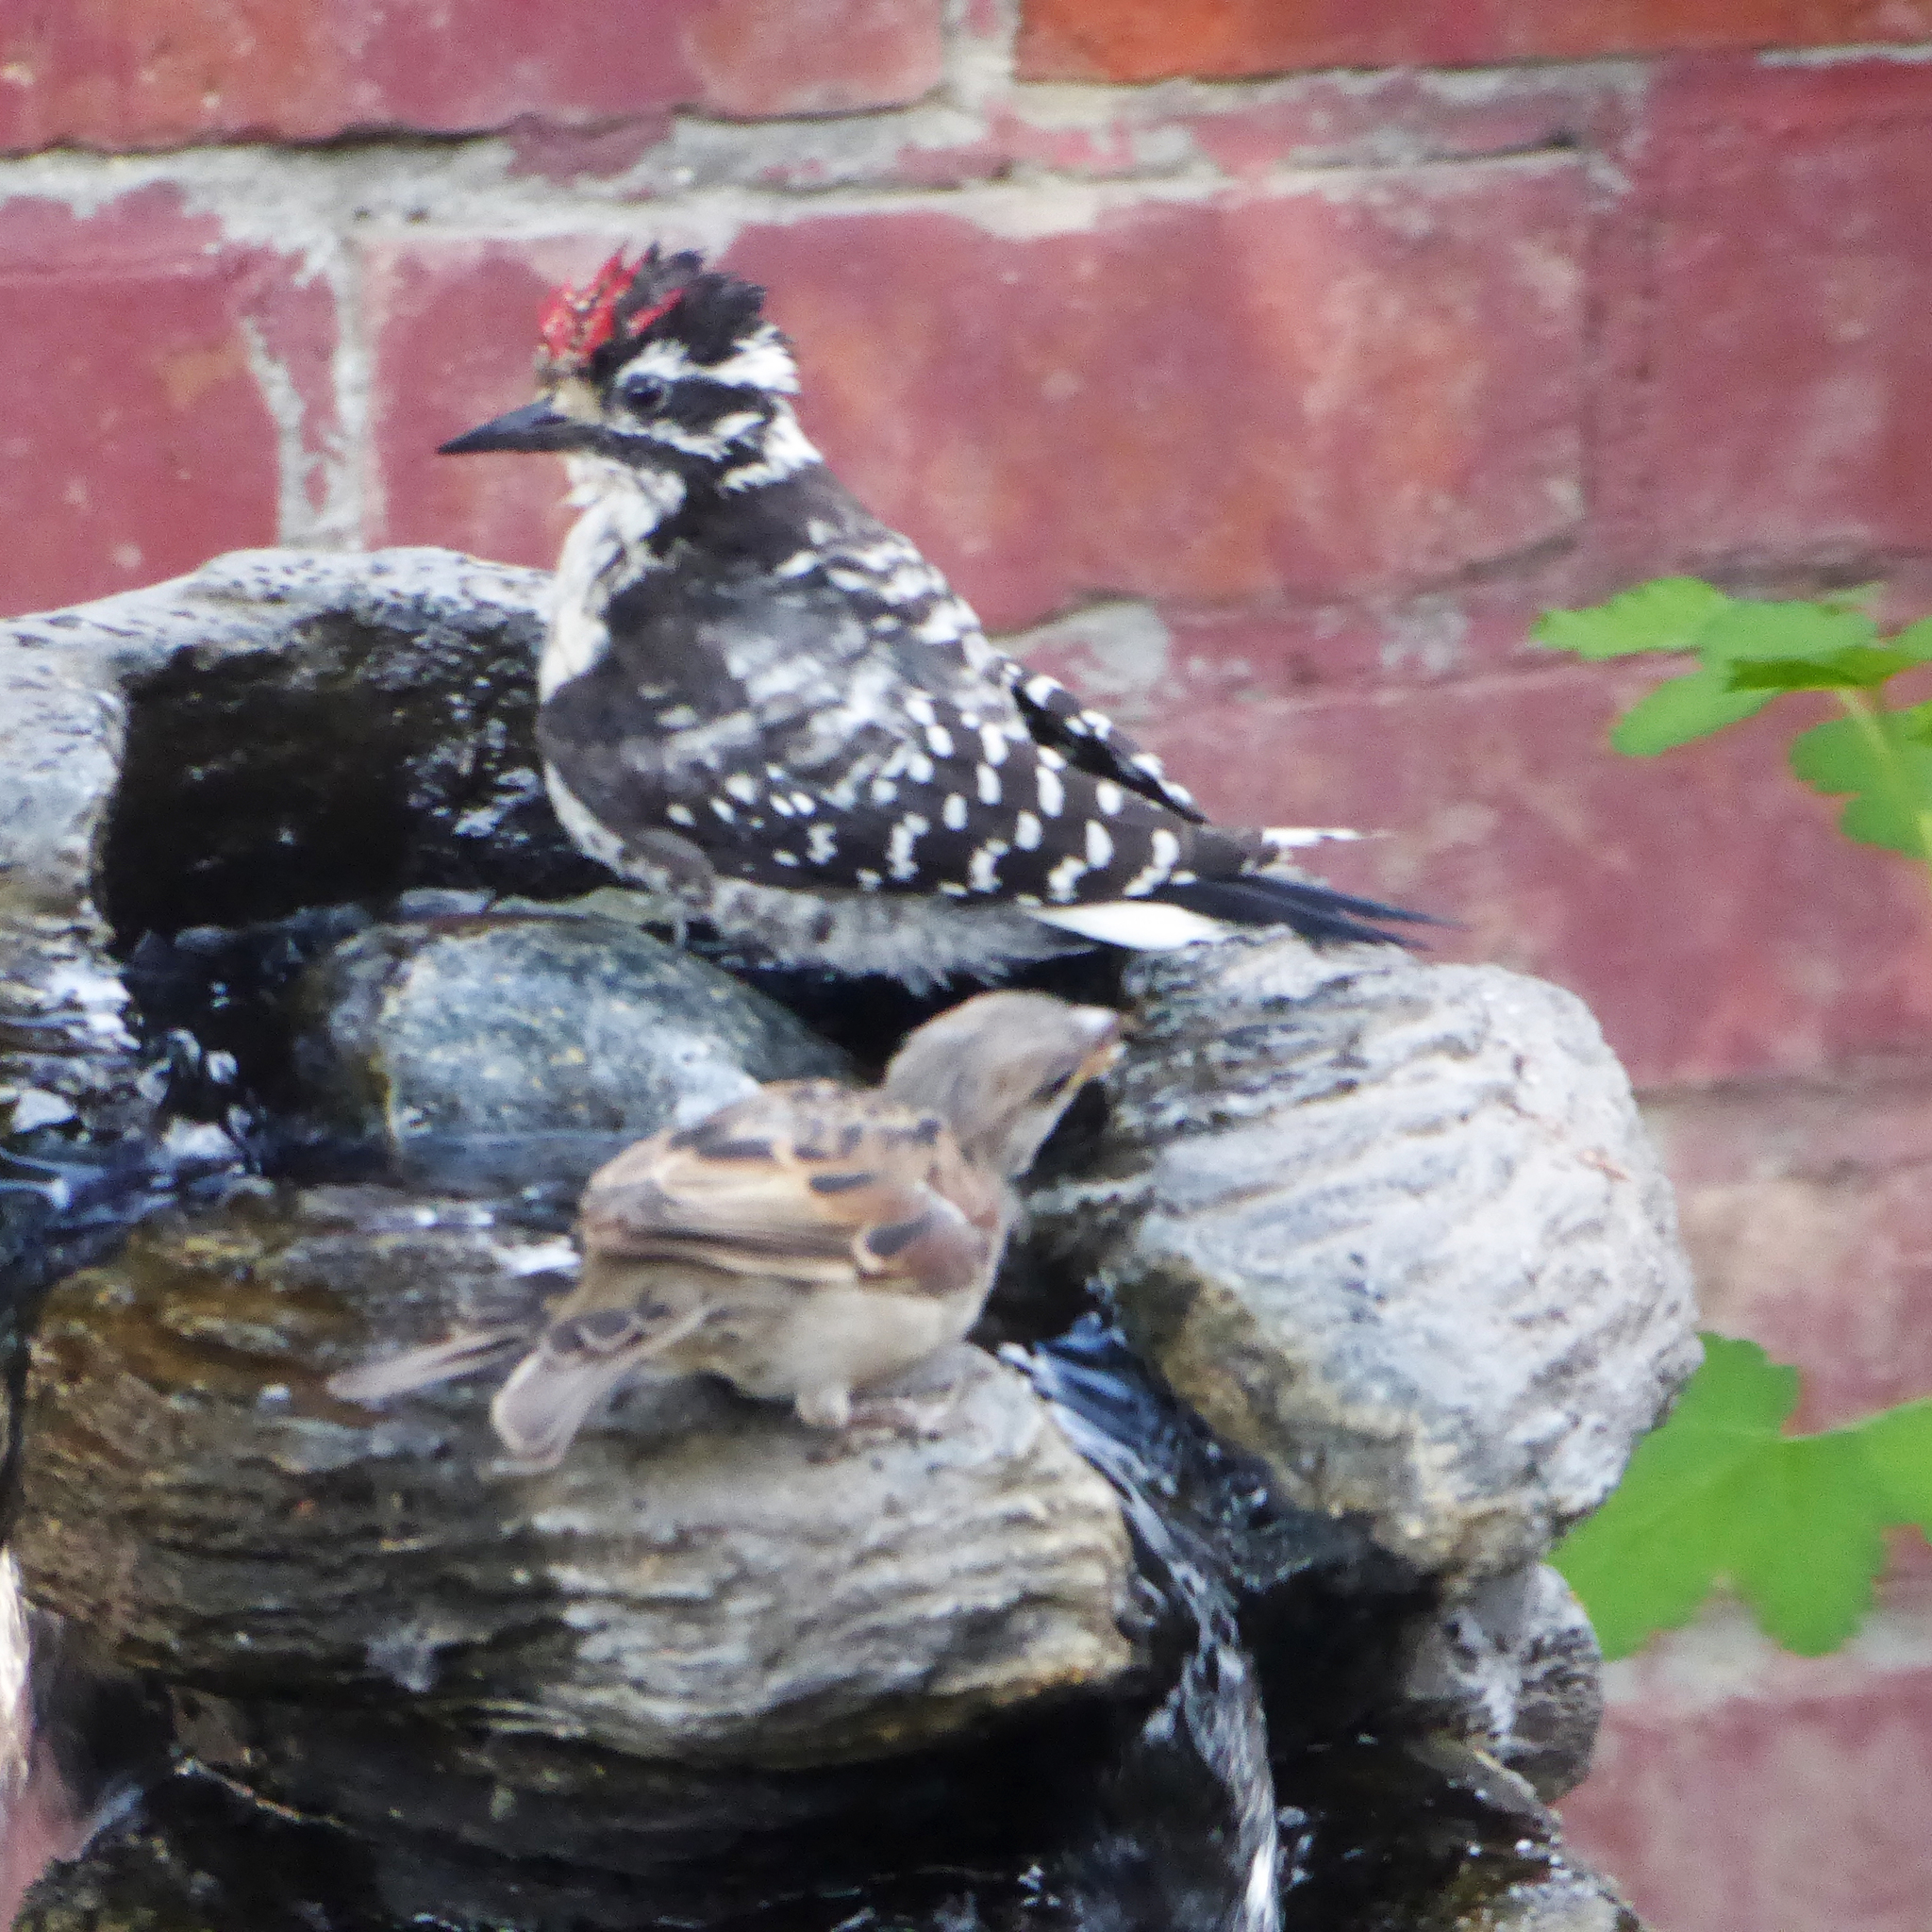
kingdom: Animalia
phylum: Chordata
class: Aves
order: Piciformes
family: Picidae
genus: Dryobates
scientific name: Dryobates nuttallii
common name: Nuttall's woodpecker
